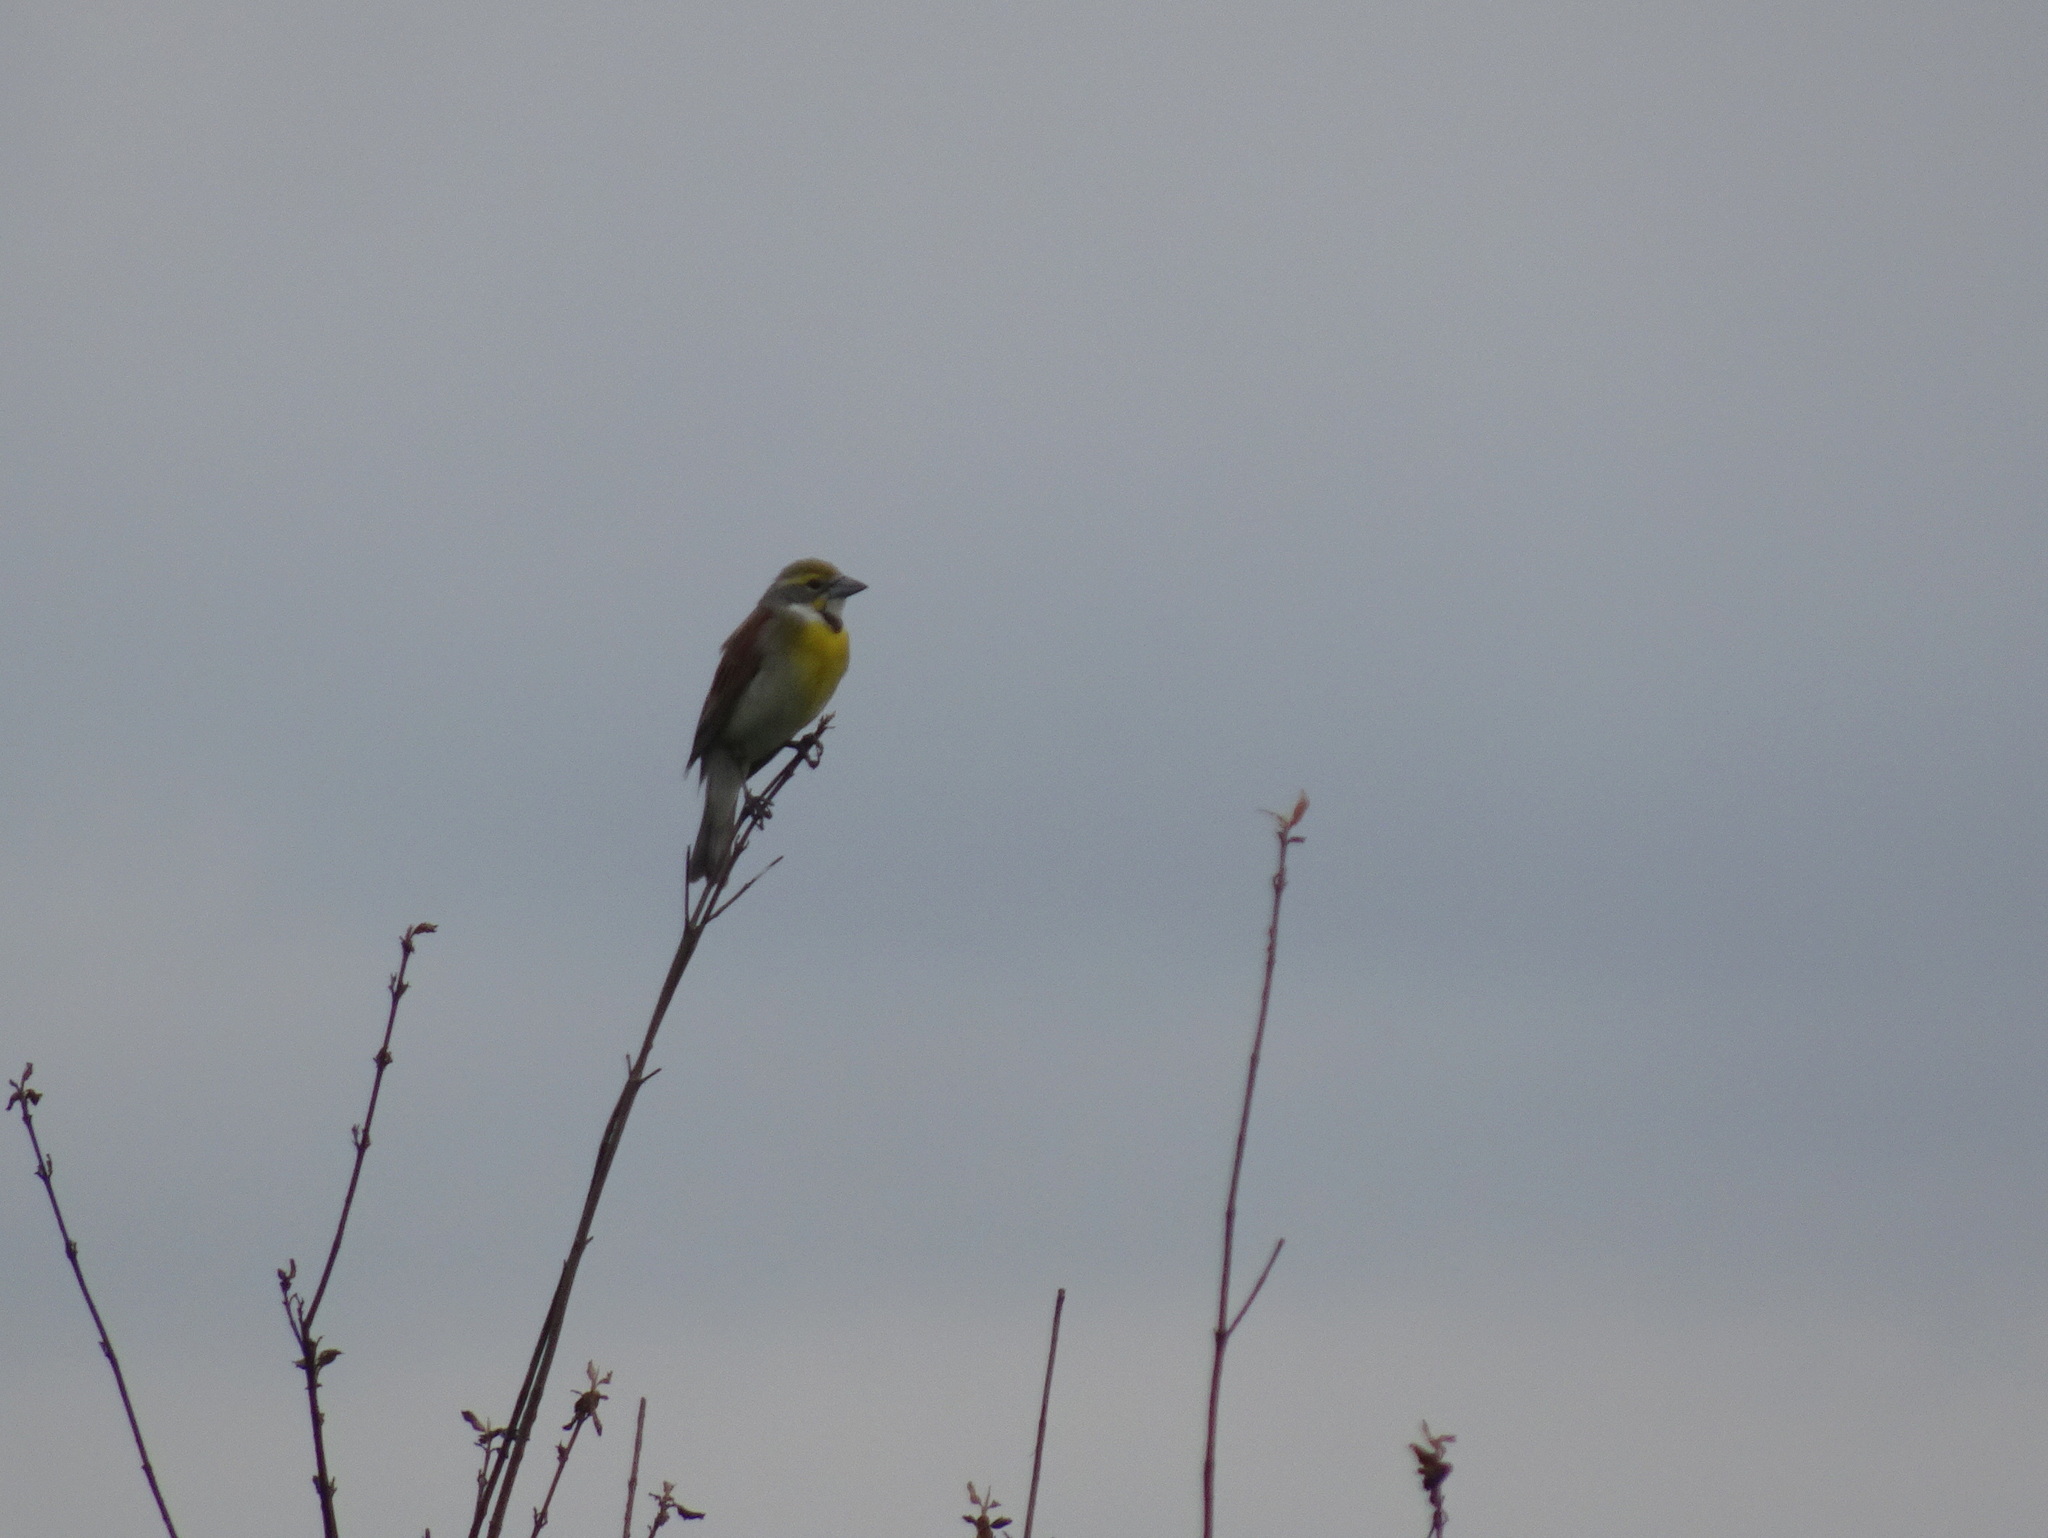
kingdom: Animalia
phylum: Chordata
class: Aves
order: Passeriformes
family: Cardinalidae
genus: Spiza
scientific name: Spiza americana
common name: Dickcissel
